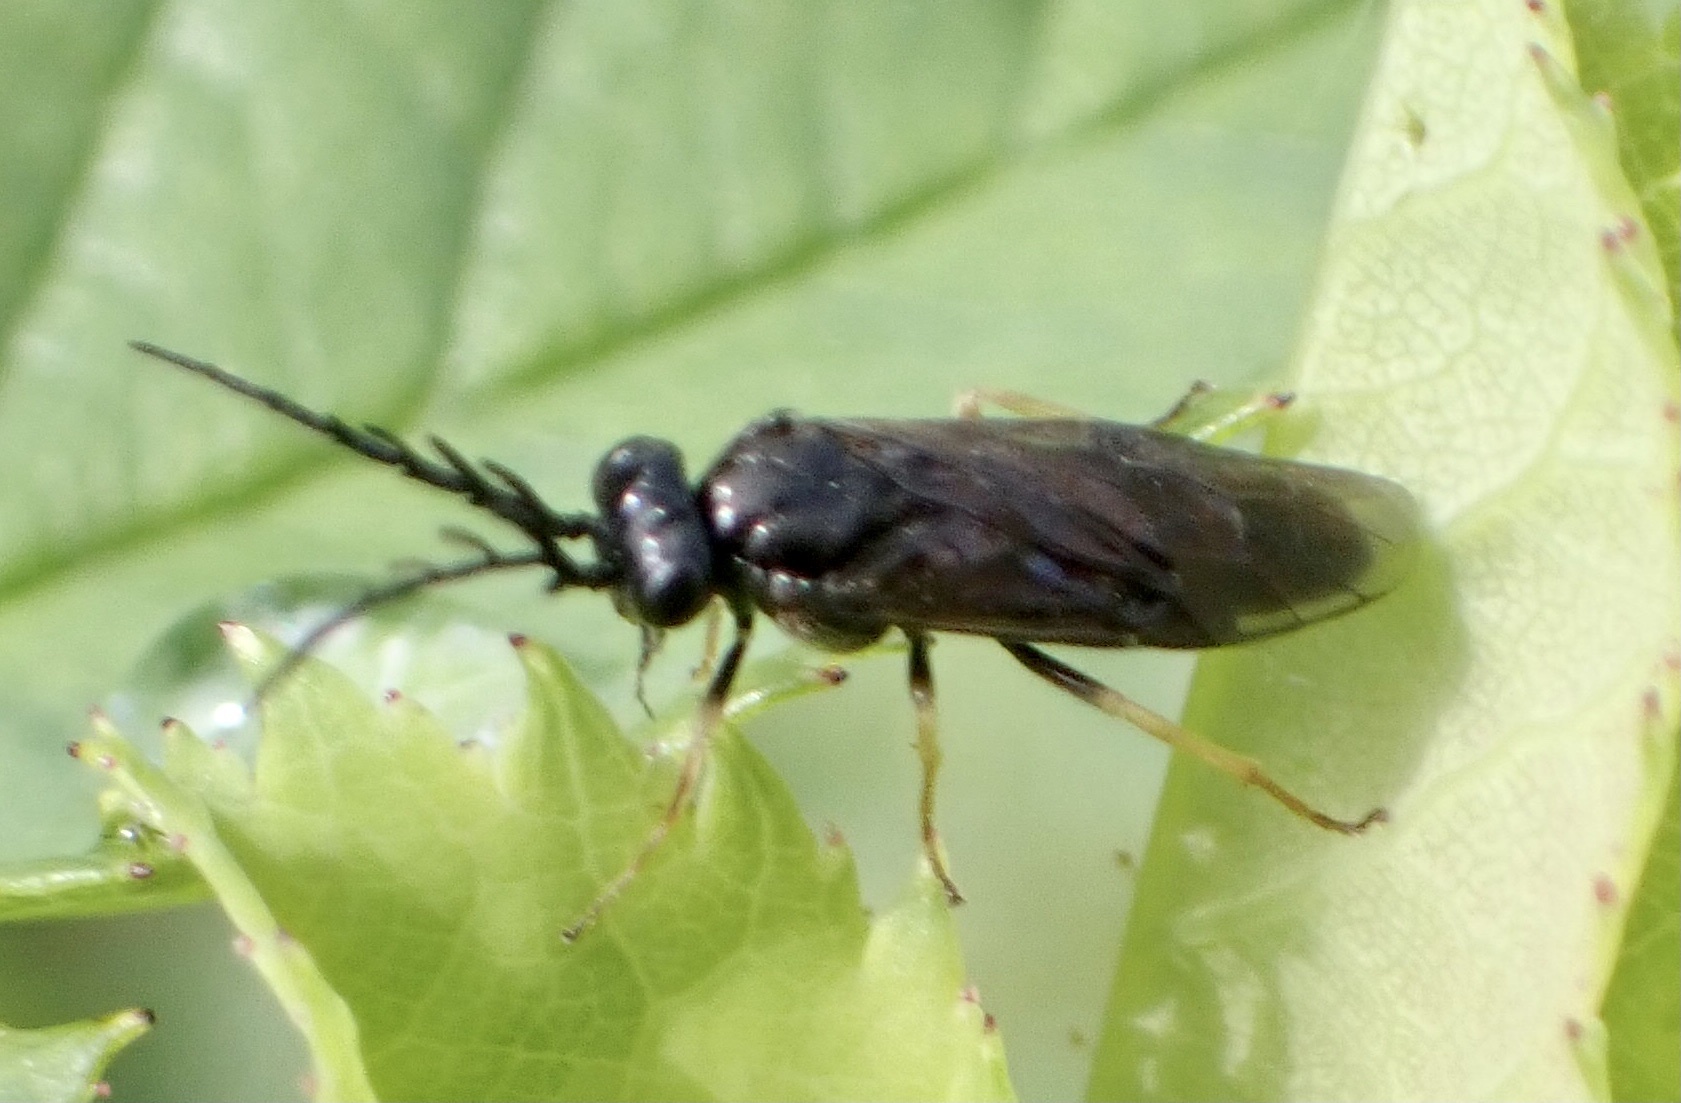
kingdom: Animalia
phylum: Arthropoda
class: Insecta
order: Hymenoptera
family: Tenthredinidae
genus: Cladius
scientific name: Cladius pectinicornis
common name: Sawfly
